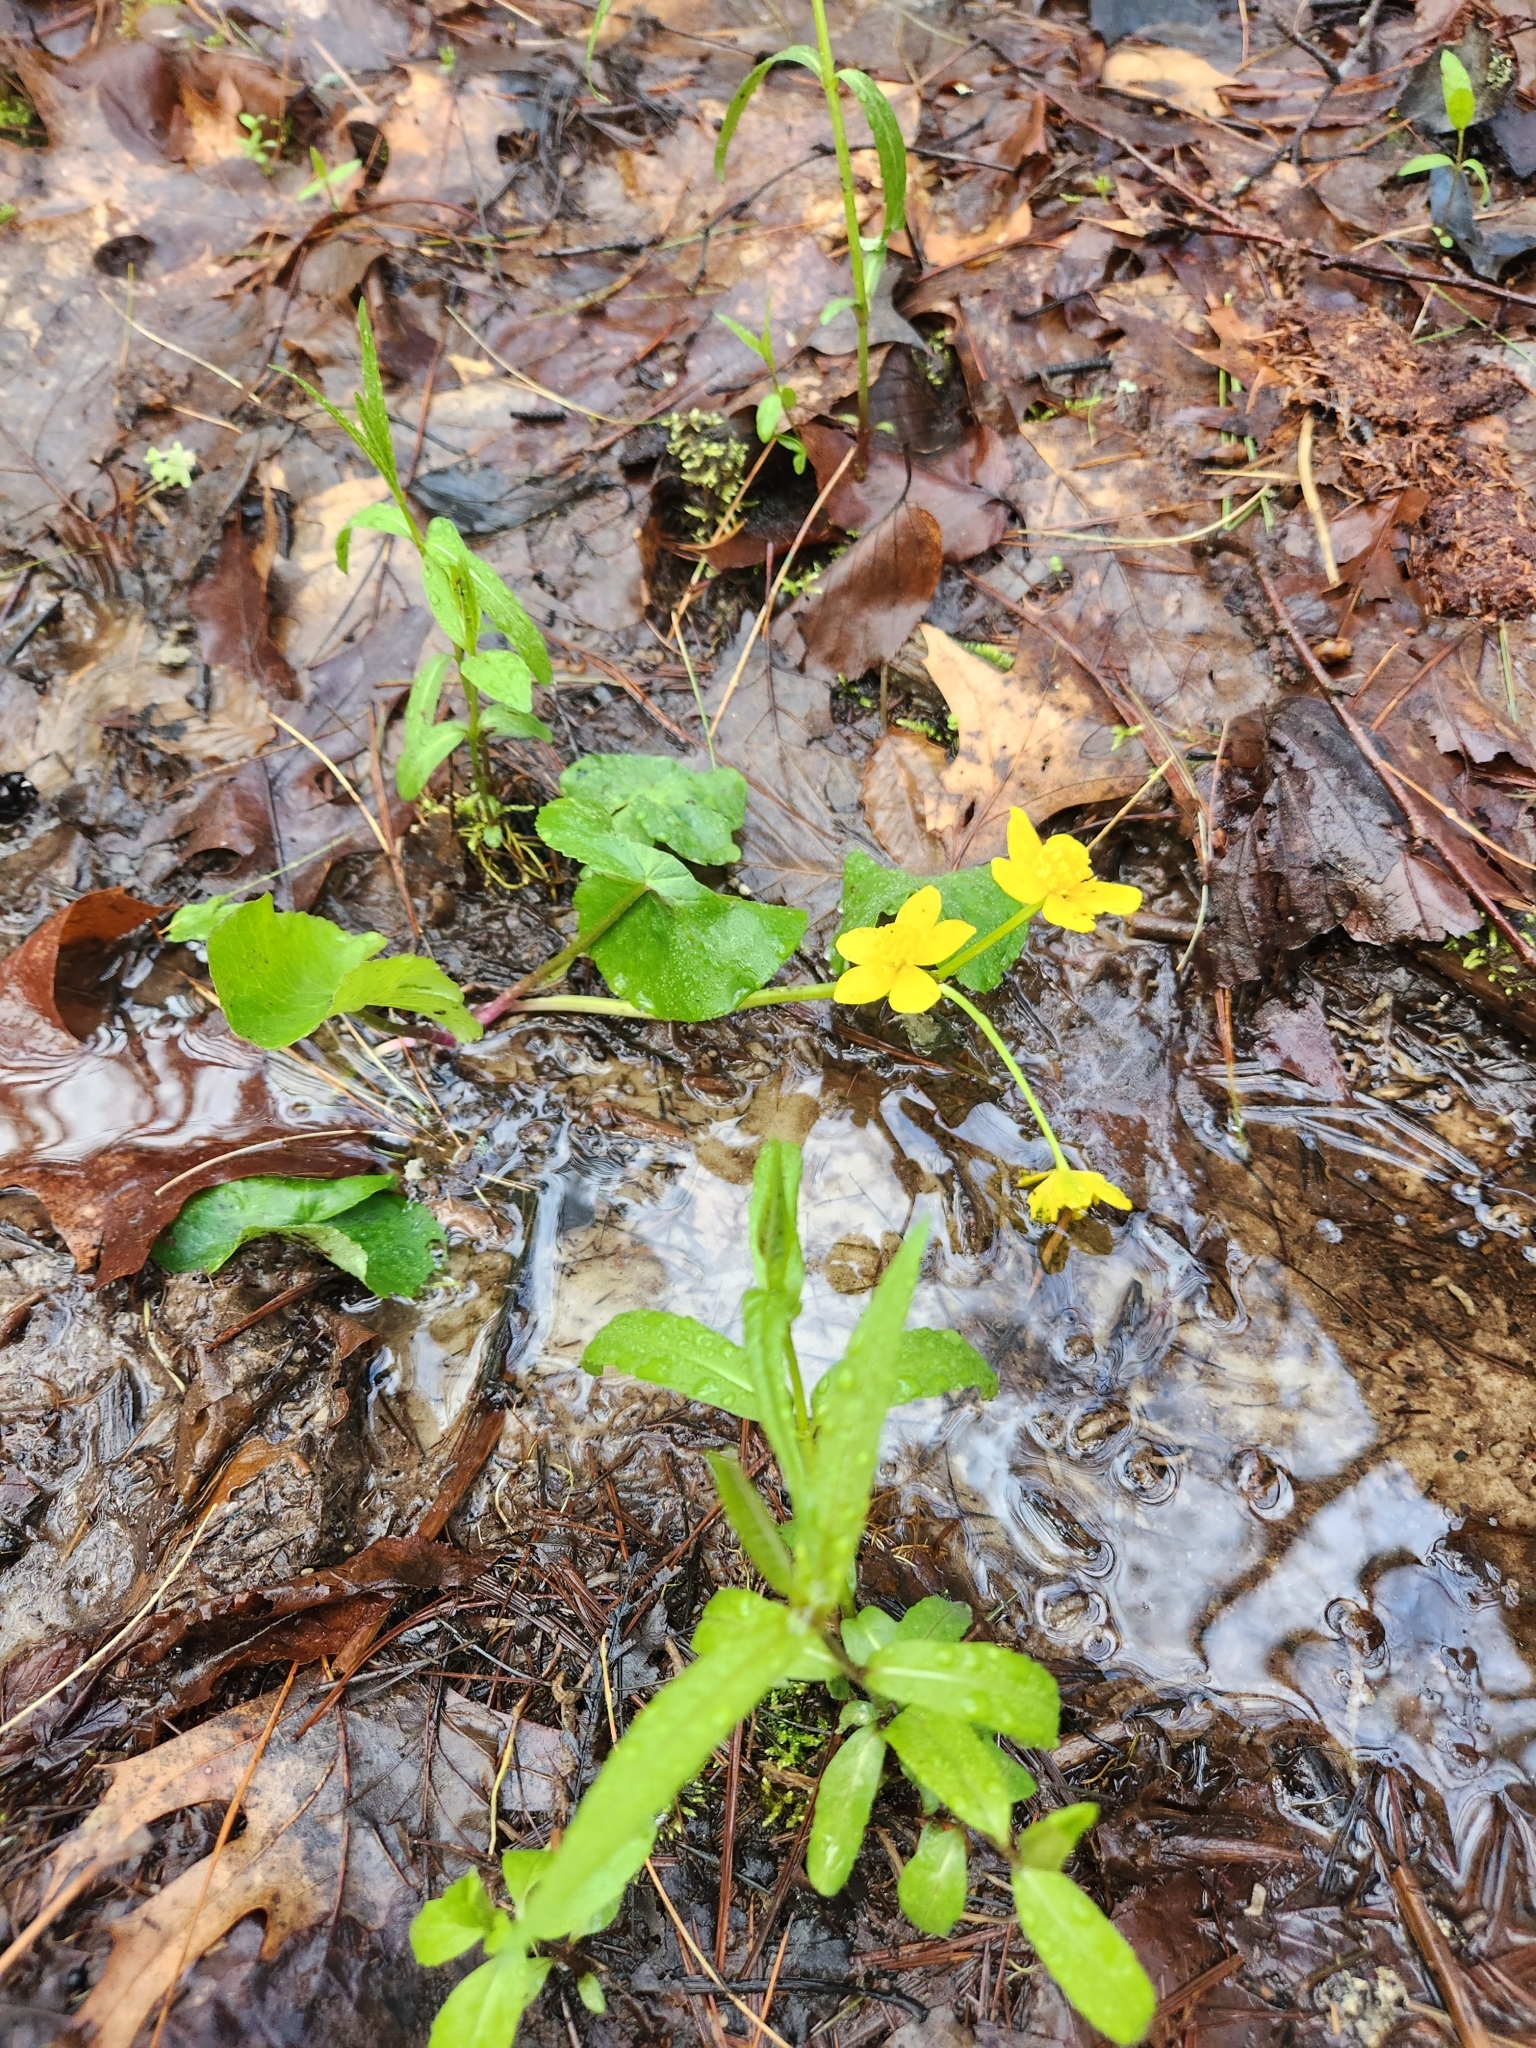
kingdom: Plantae
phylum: Tracheophyta
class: Magnoliopsida
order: Ranunculales
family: Ranunculaceae
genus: Caltha
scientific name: Caltha palustris
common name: Marsh marigold
